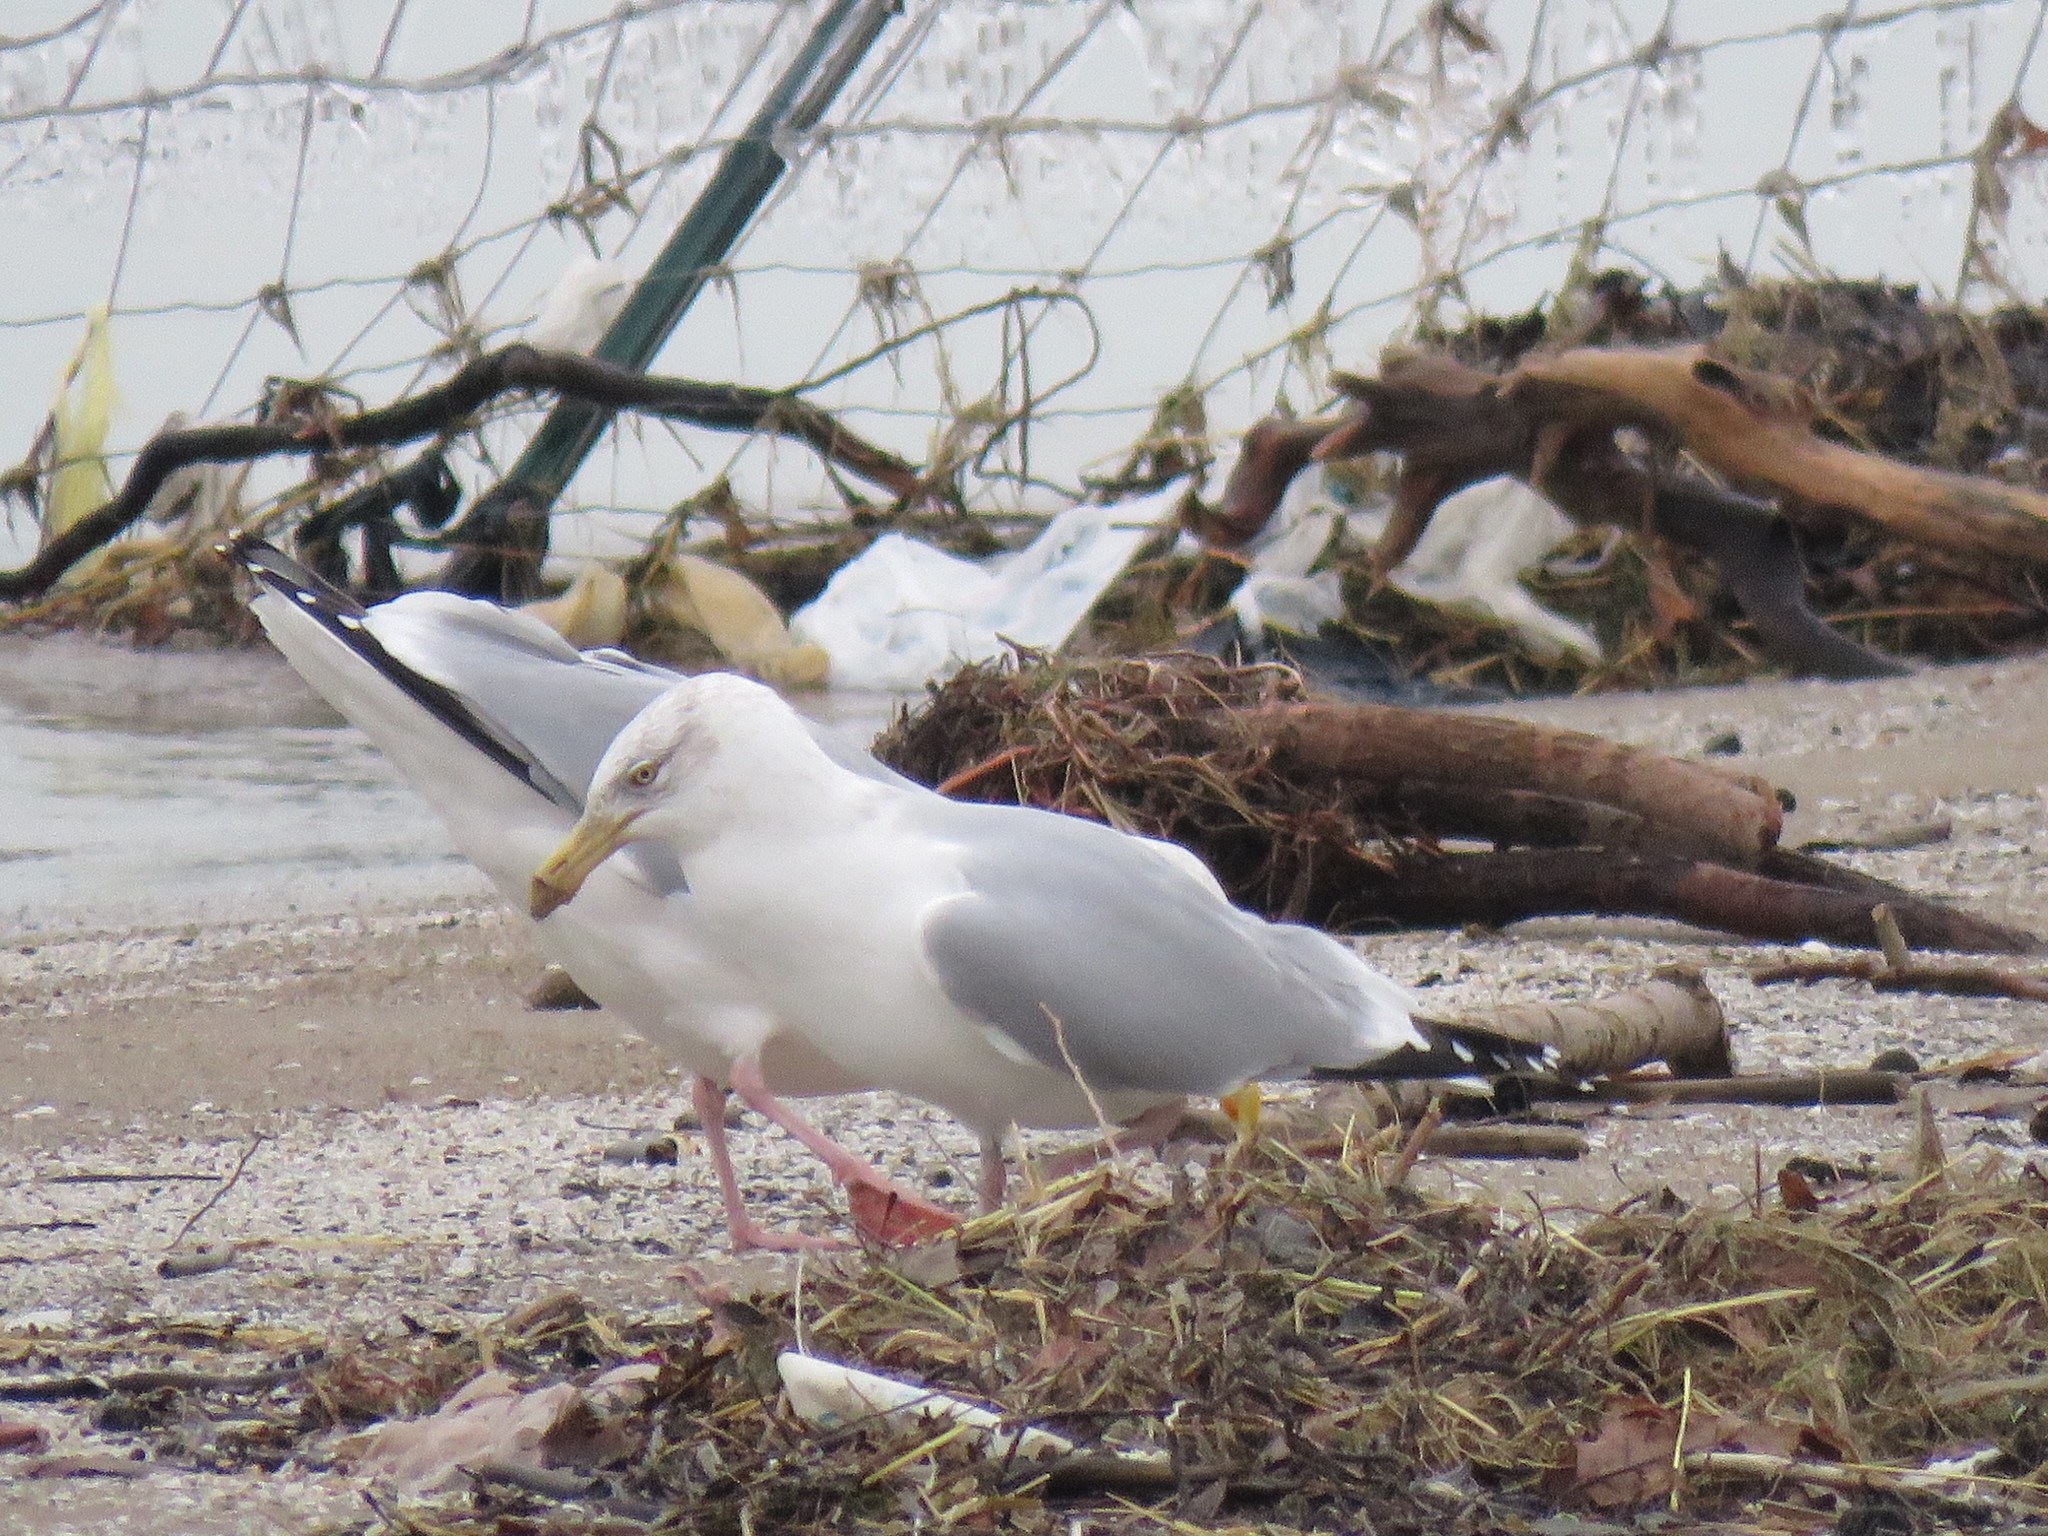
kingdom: Animalia
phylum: Chordata
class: Aves
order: Charadriiformes
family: Laridae
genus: Larus
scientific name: Larus argentatus
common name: Herring gull
